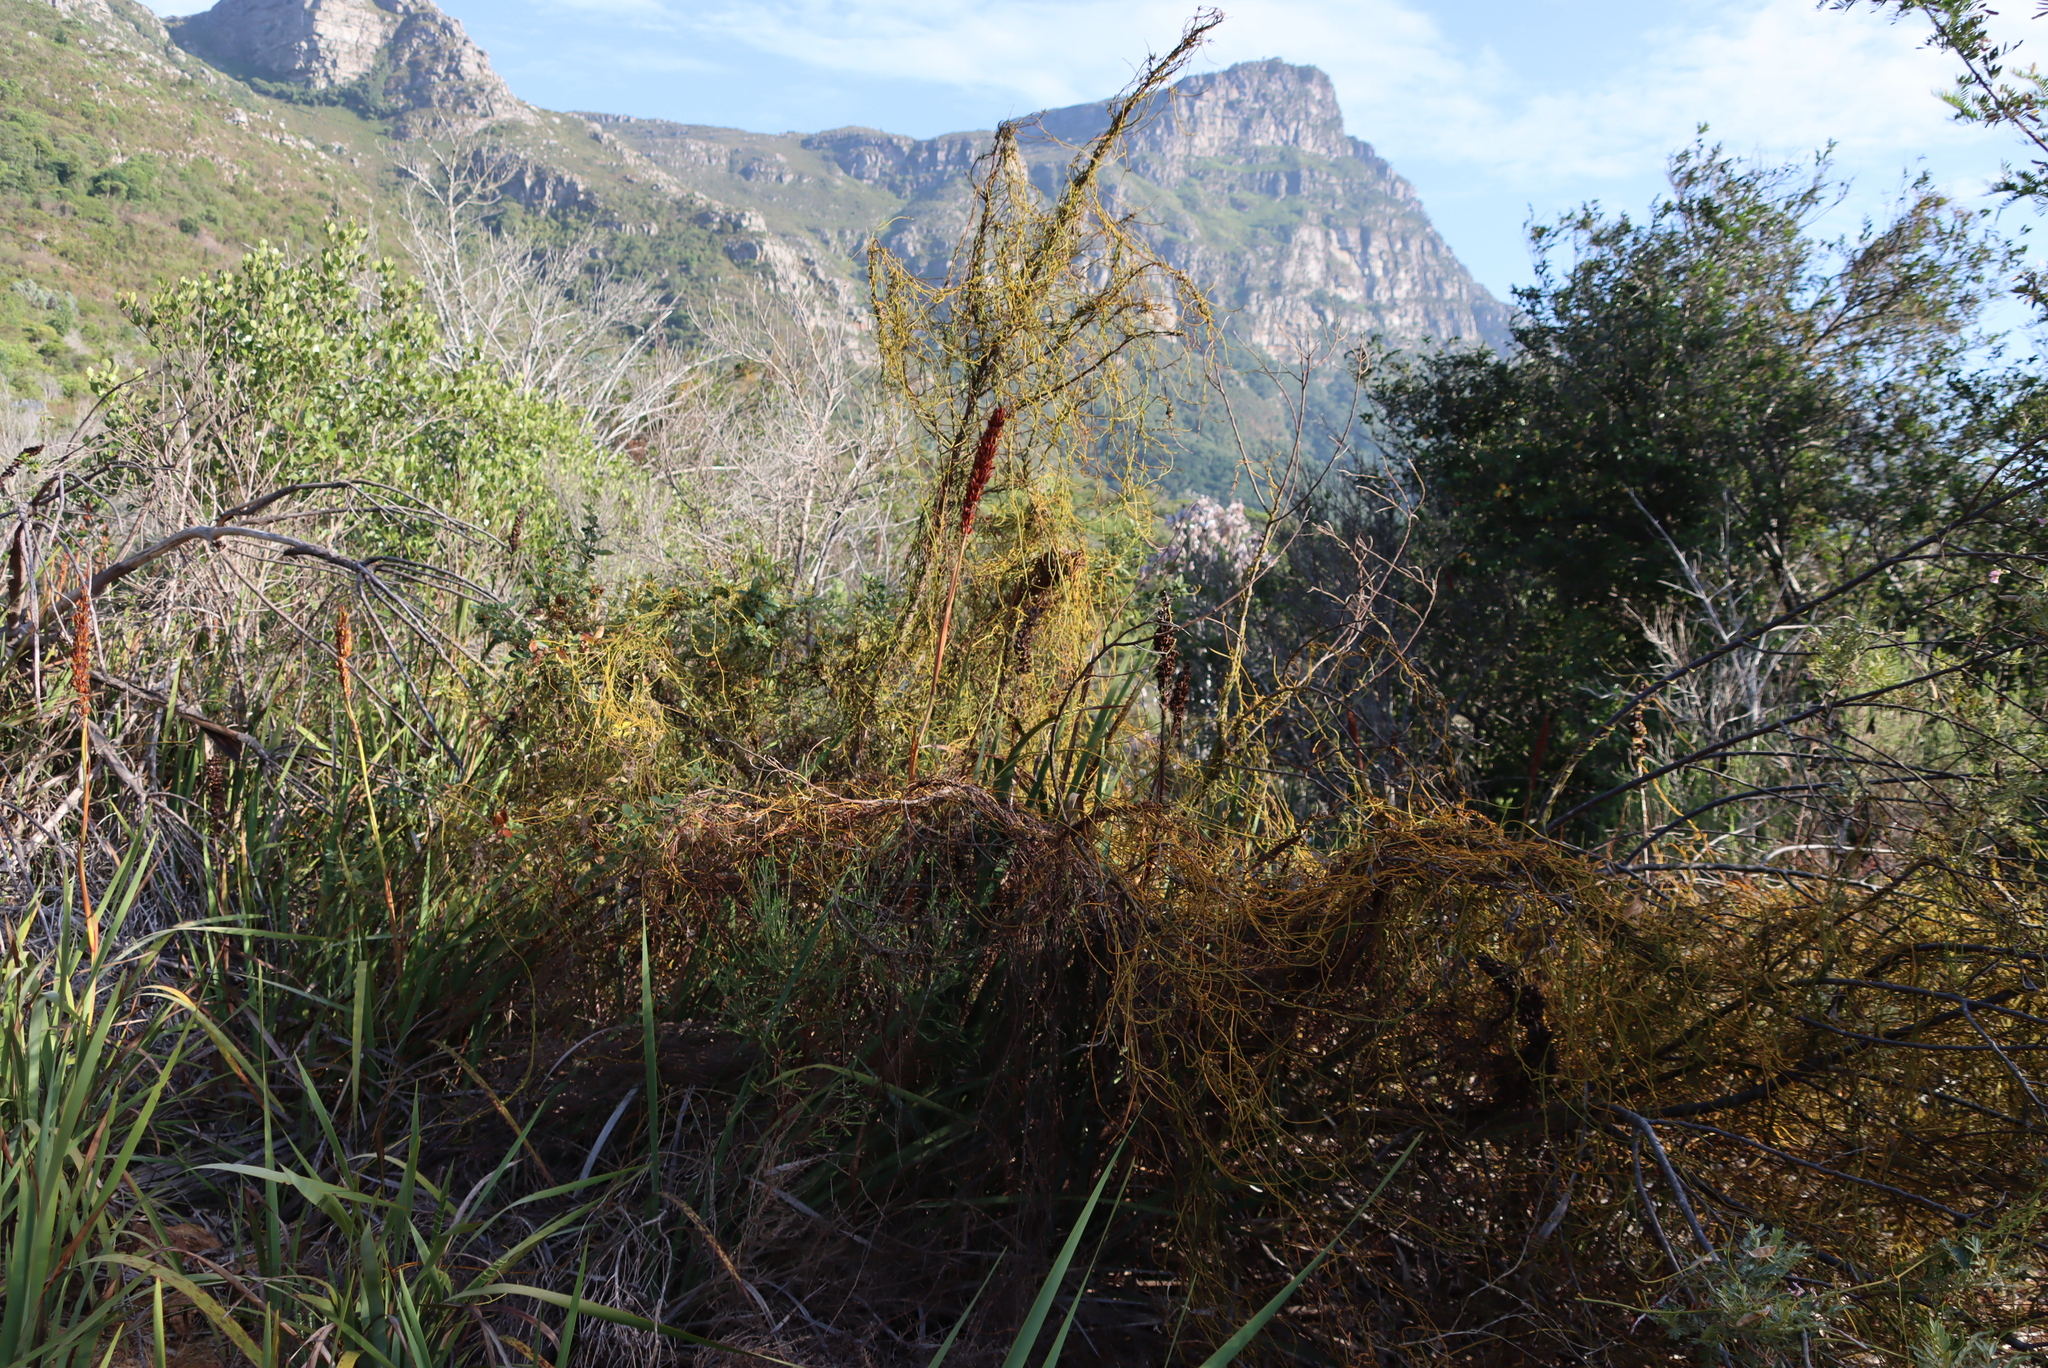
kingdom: Plantae
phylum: Tracheophyta
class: Magnoliopsida
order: Laurales
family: Lauraceae
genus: Cassytha
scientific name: Cassytha ciliolata
